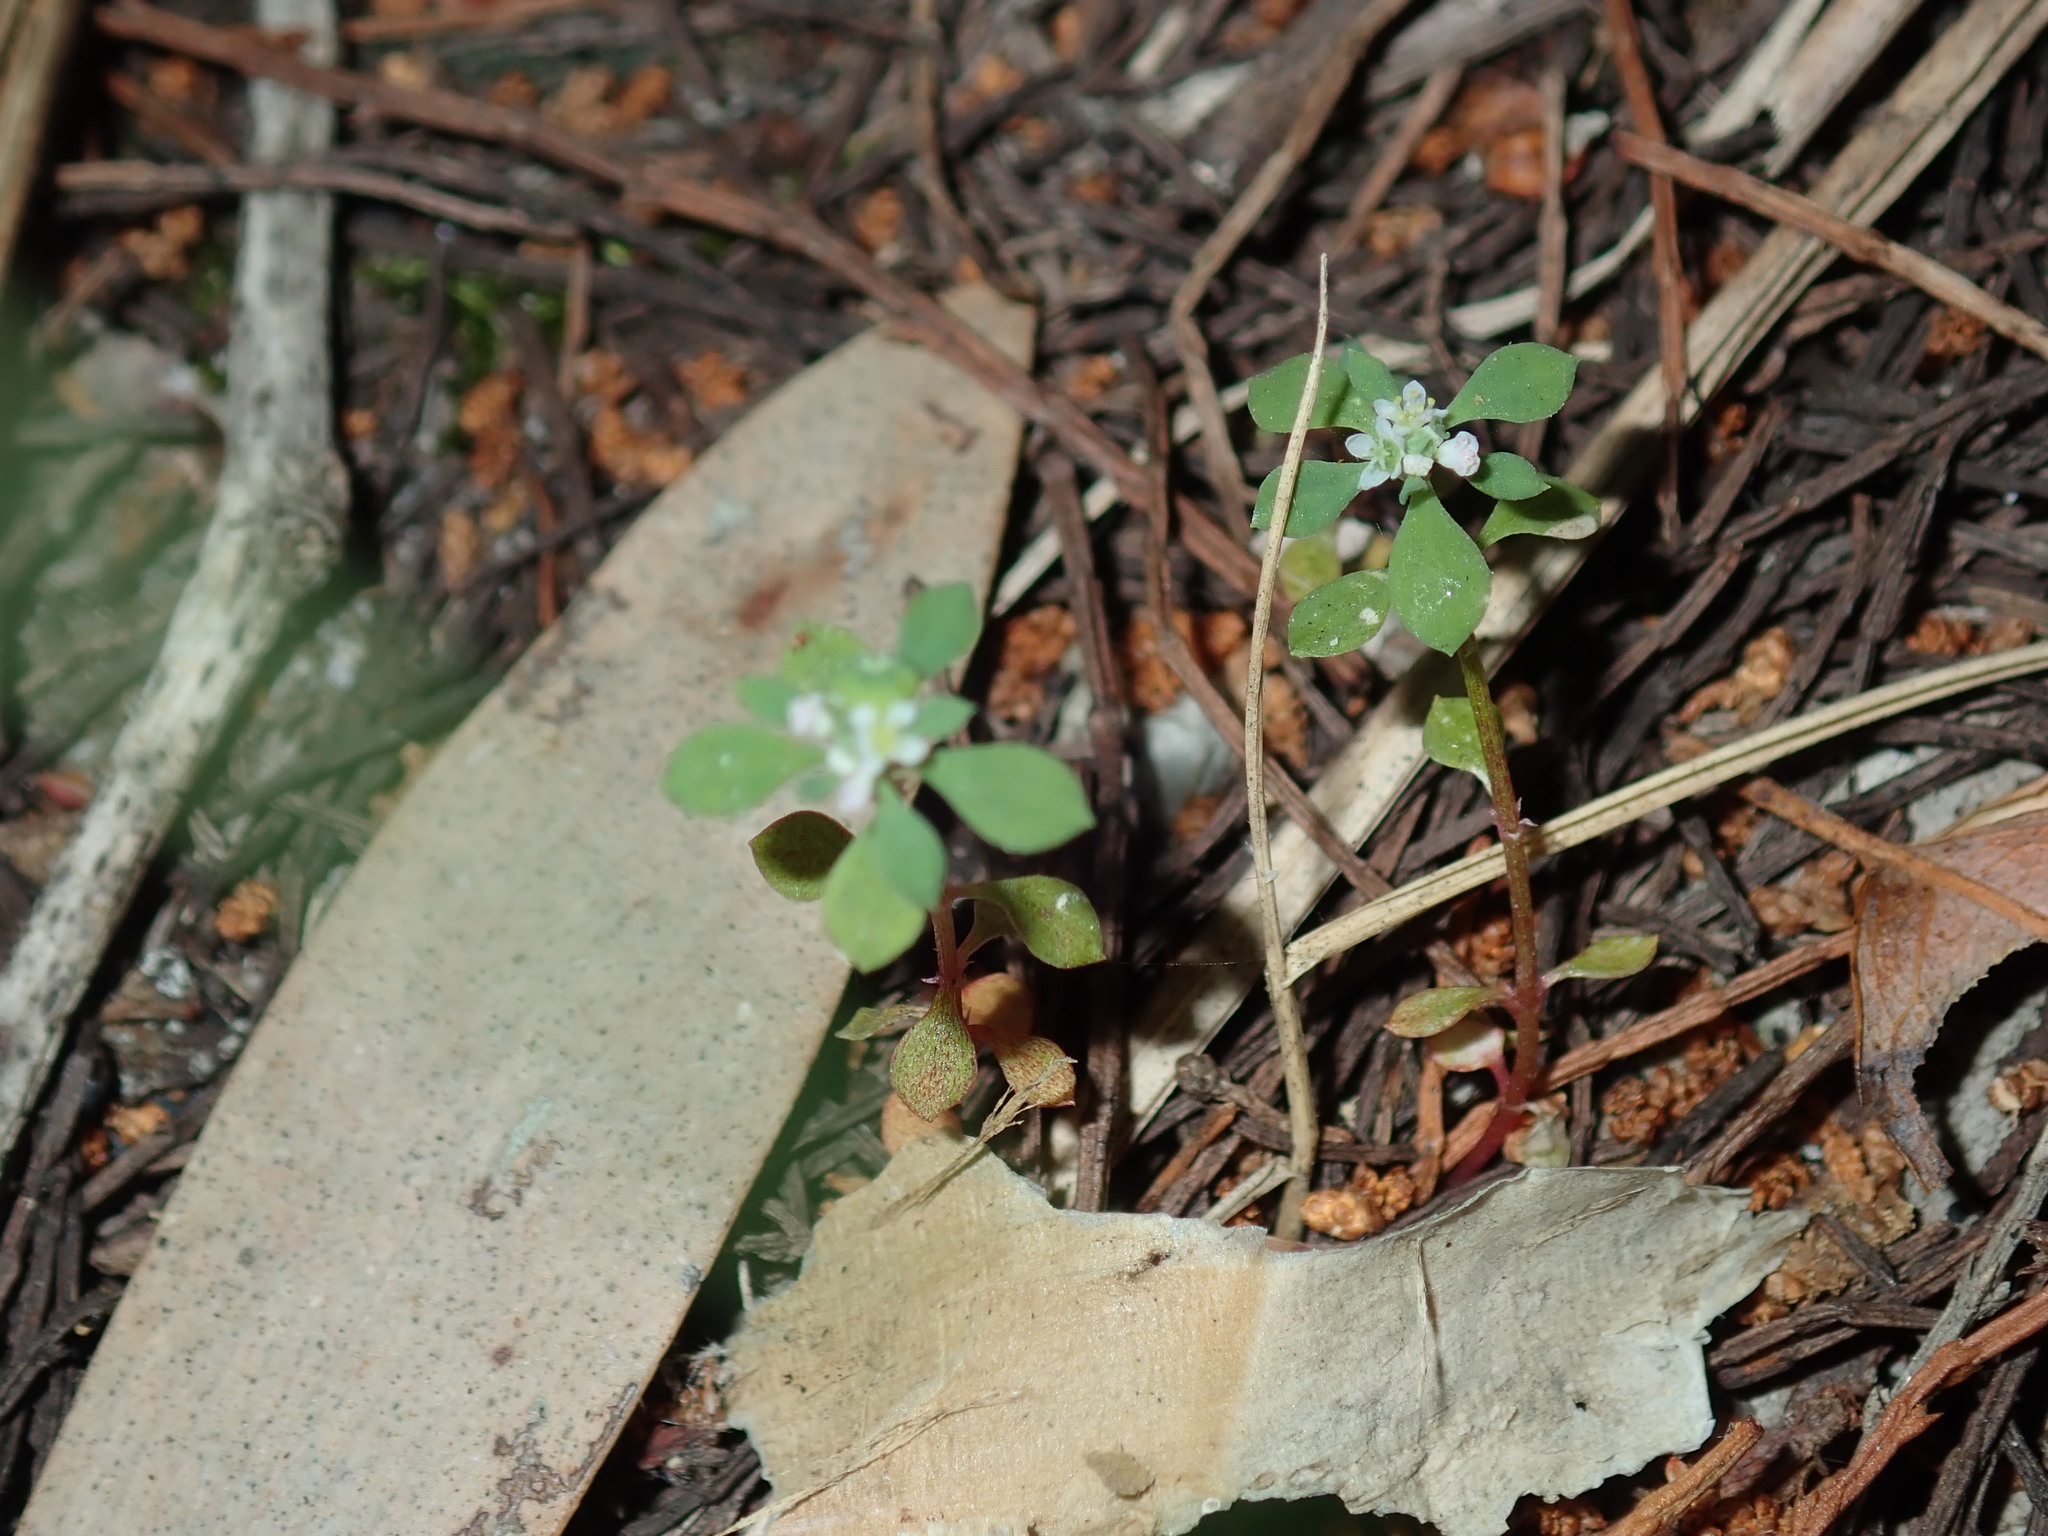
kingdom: Plantae
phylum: Tracheophyta
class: Magnoliopsida
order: Malpighiales
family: Phyllanthaceae
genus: Poranthera
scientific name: Poranthera microphylla
